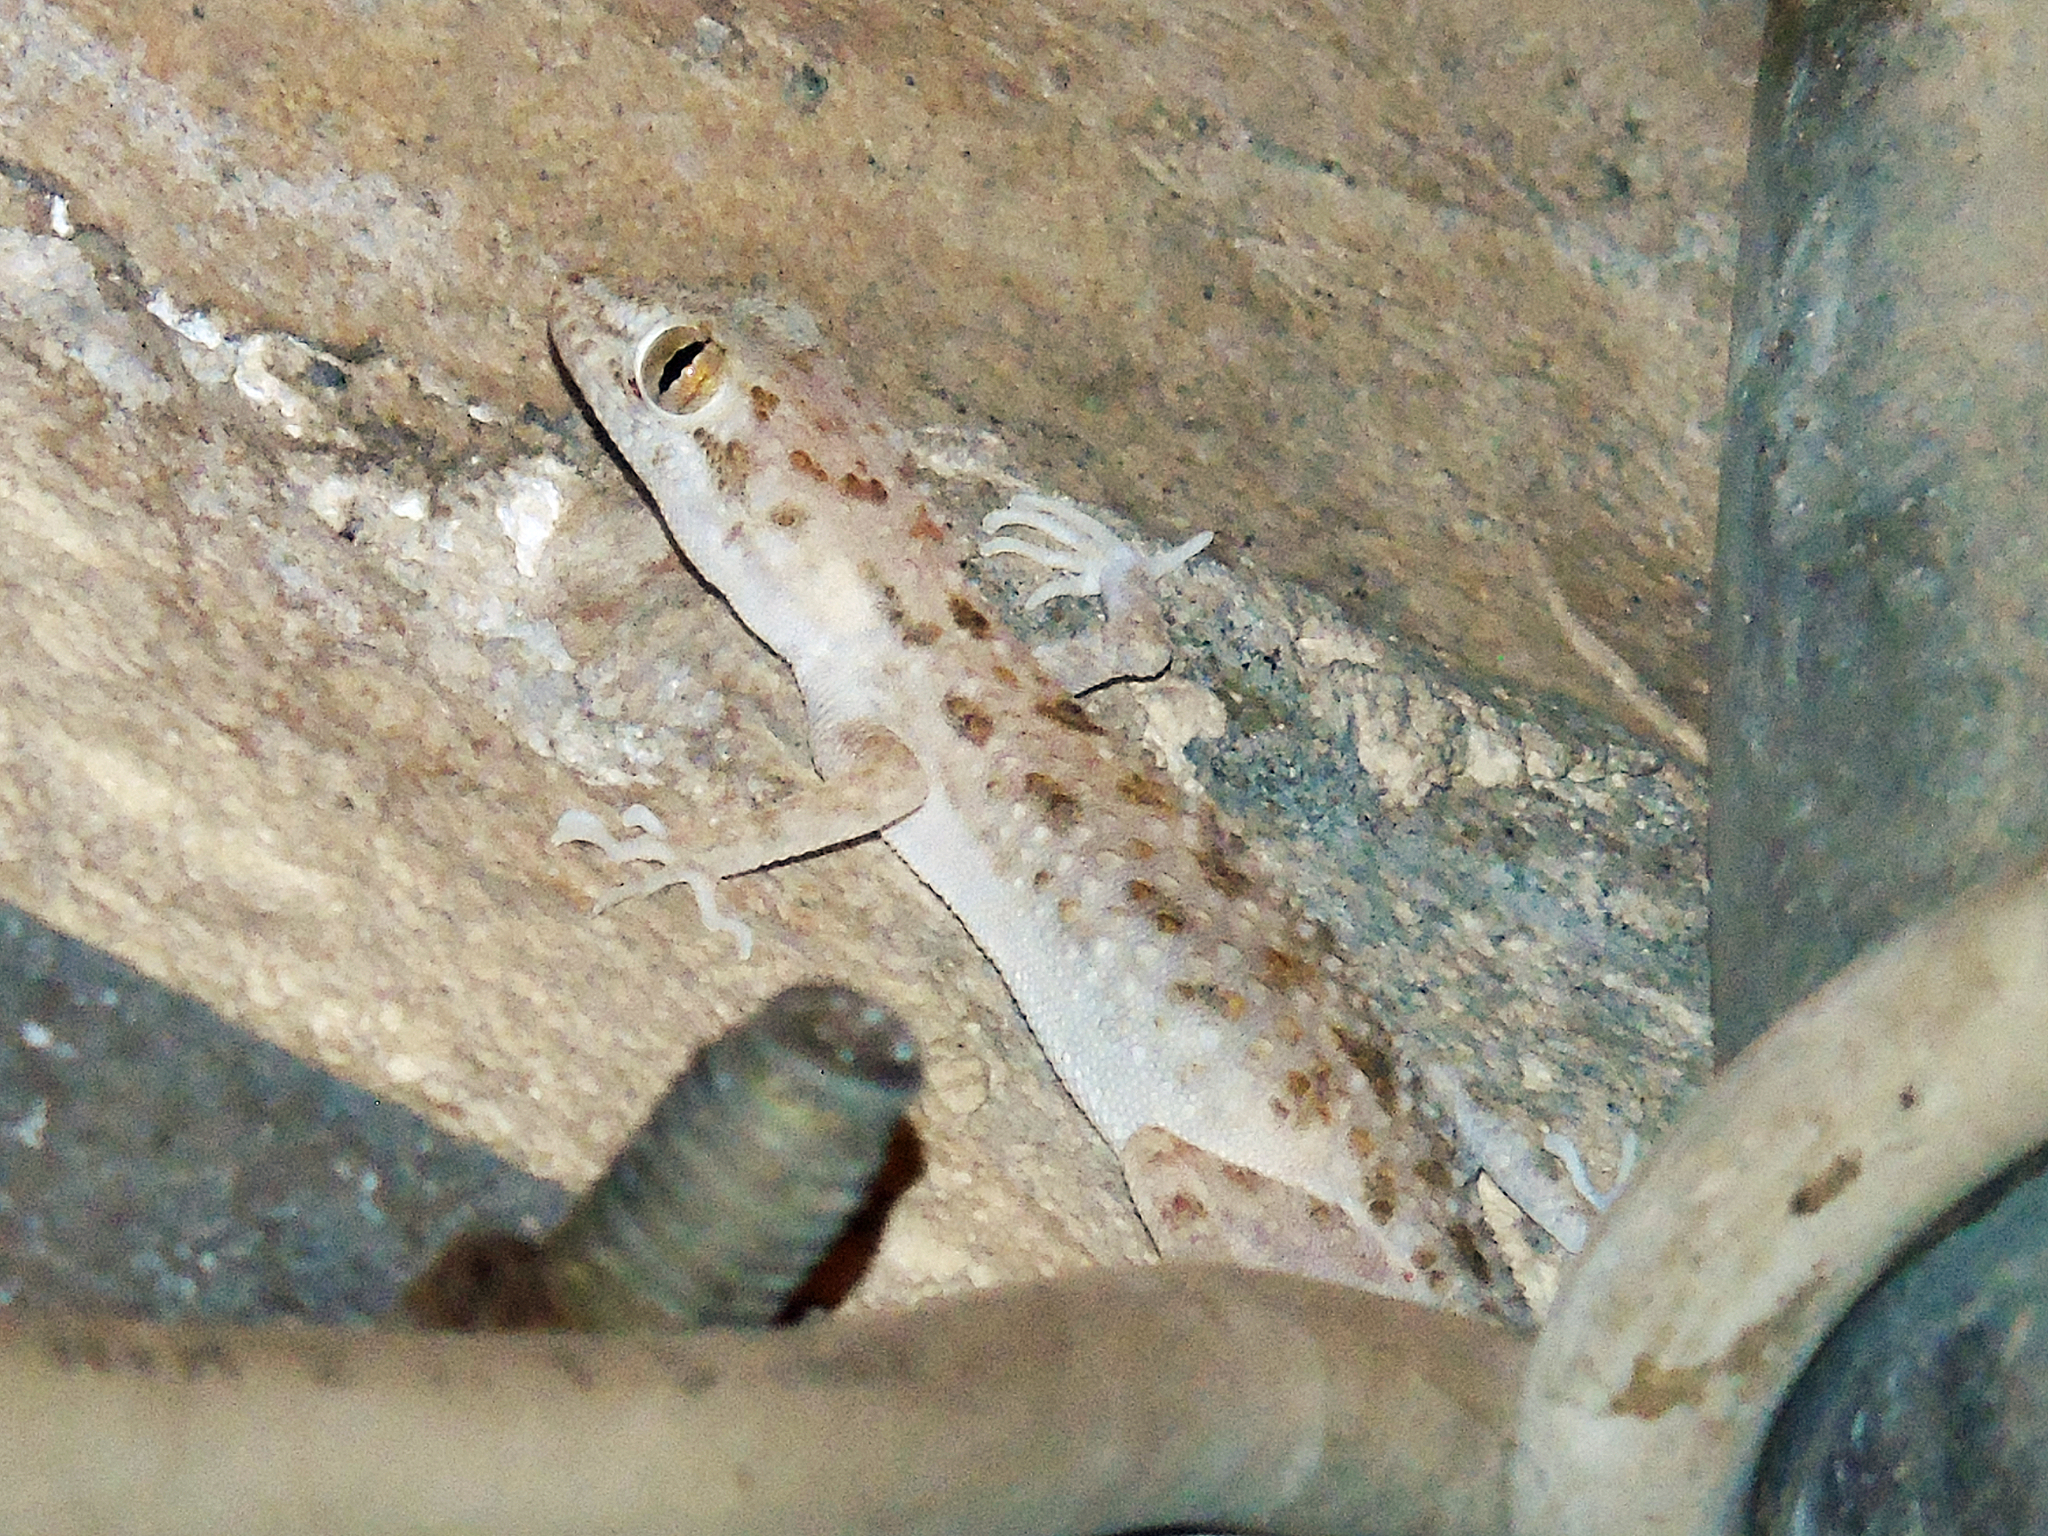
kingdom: Animalia
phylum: Chordata
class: Squamata
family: Gekkonidae
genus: Cyrtopodion
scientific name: Cyrtopodion scabrum
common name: Rough-tailed gecko
